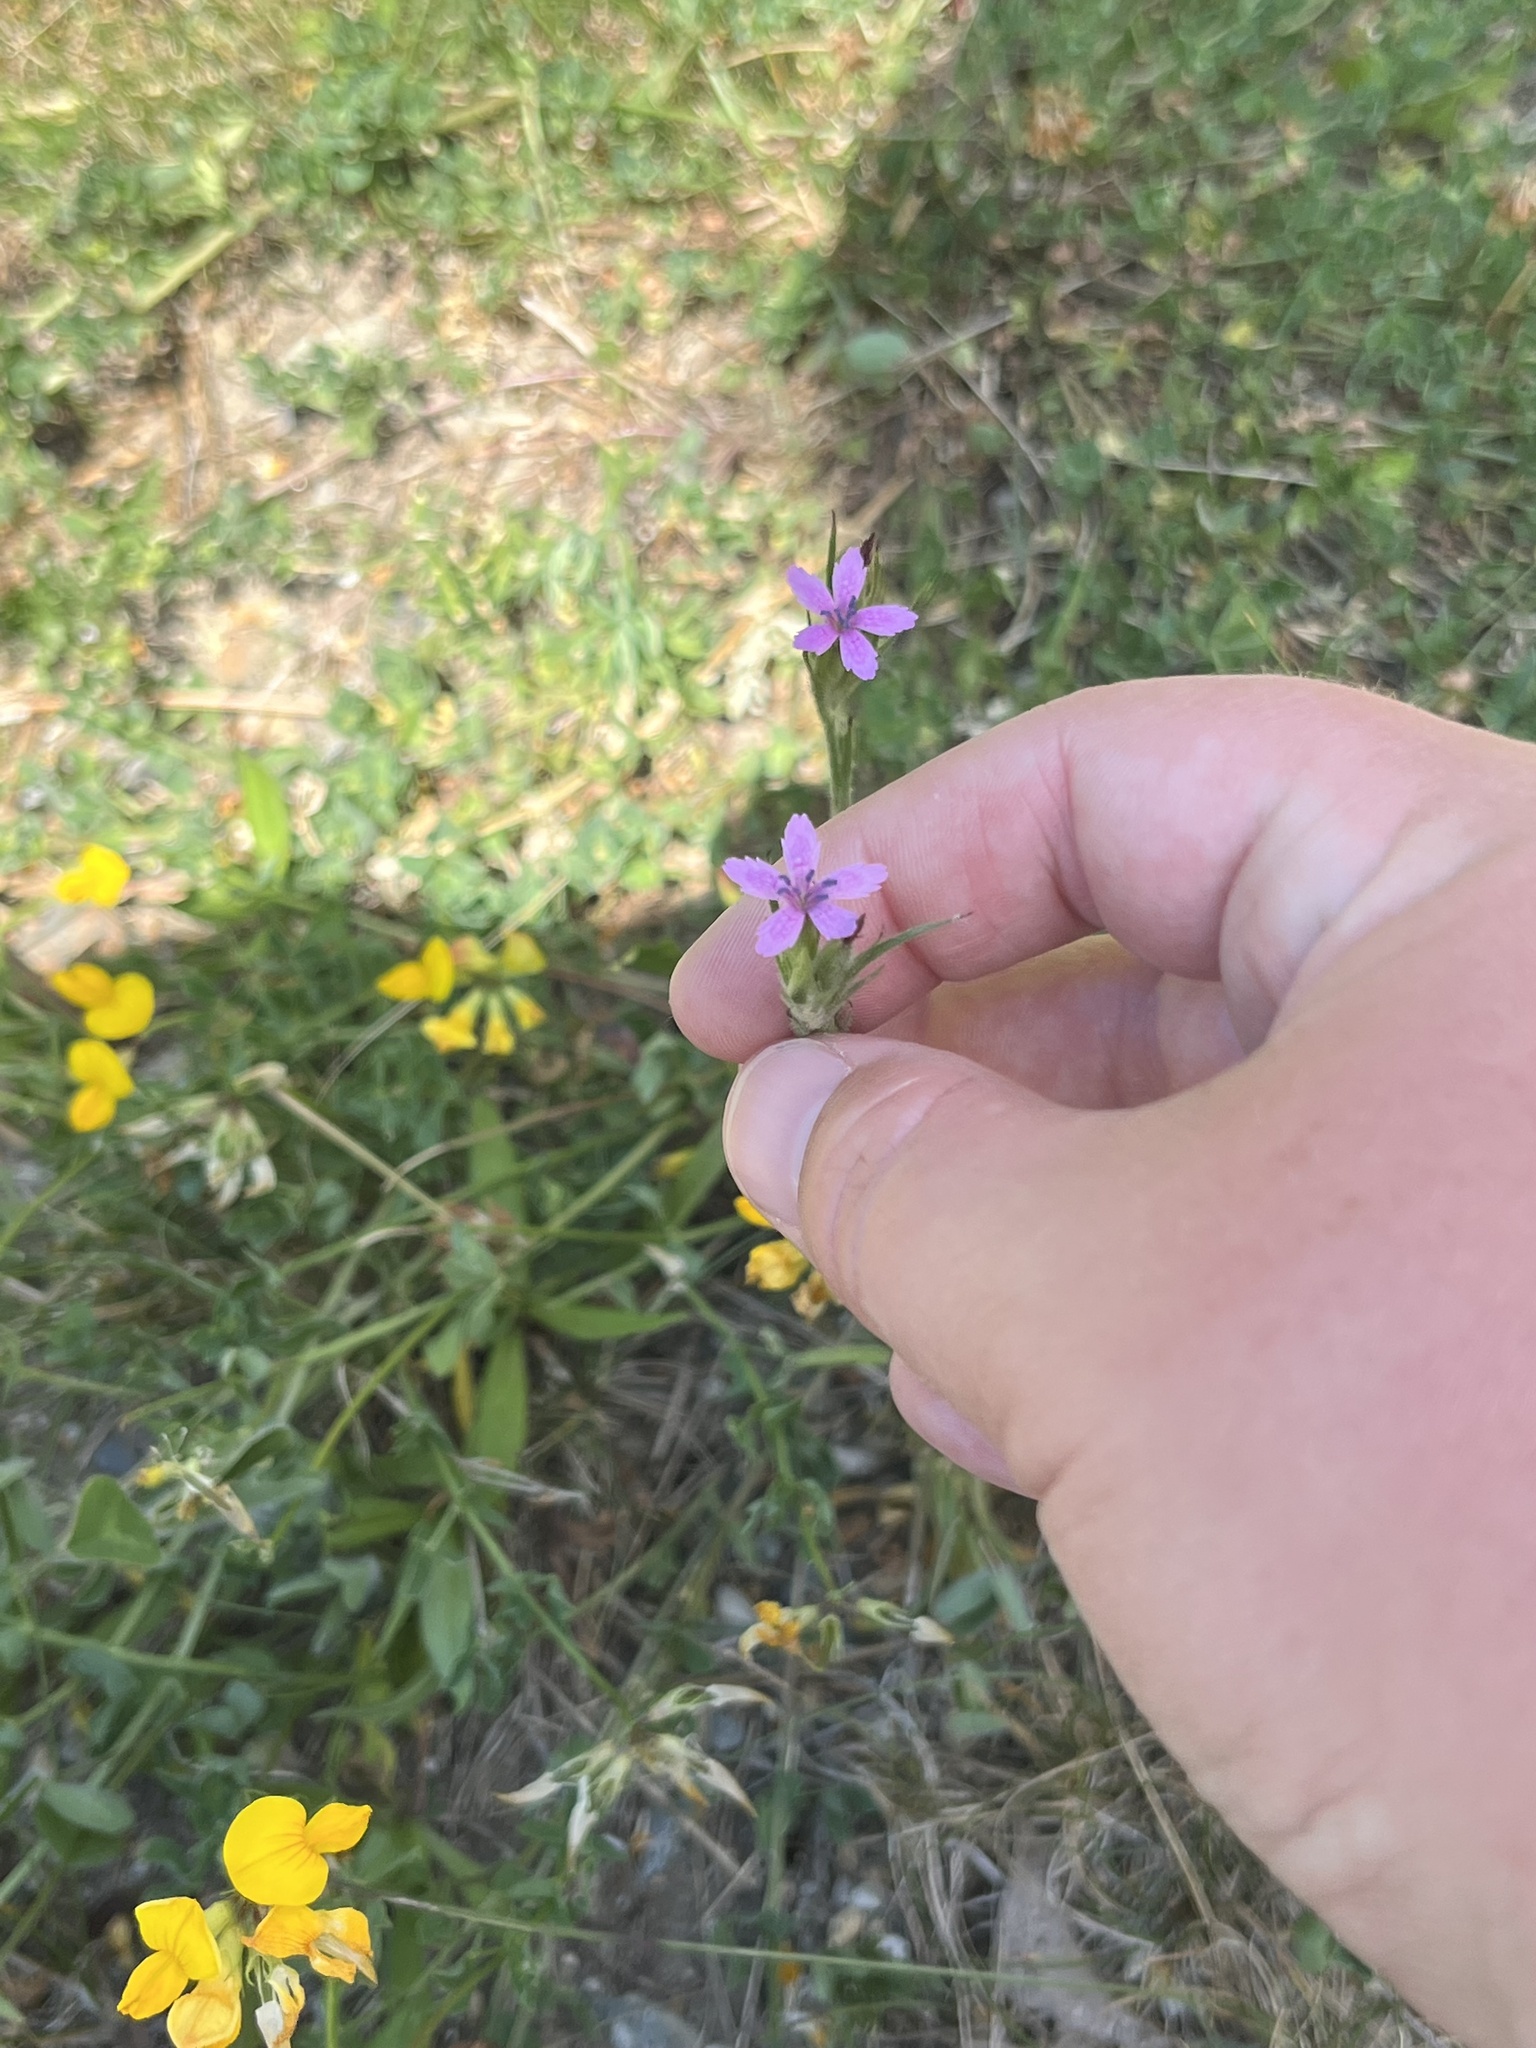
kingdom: Plantae
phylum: Tracheophyta
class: Magnoliopsida
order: Caryophyllales
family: Caryophyllaceae
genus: Dianthus
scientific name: Dianthus armeria
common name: Deptford pink
